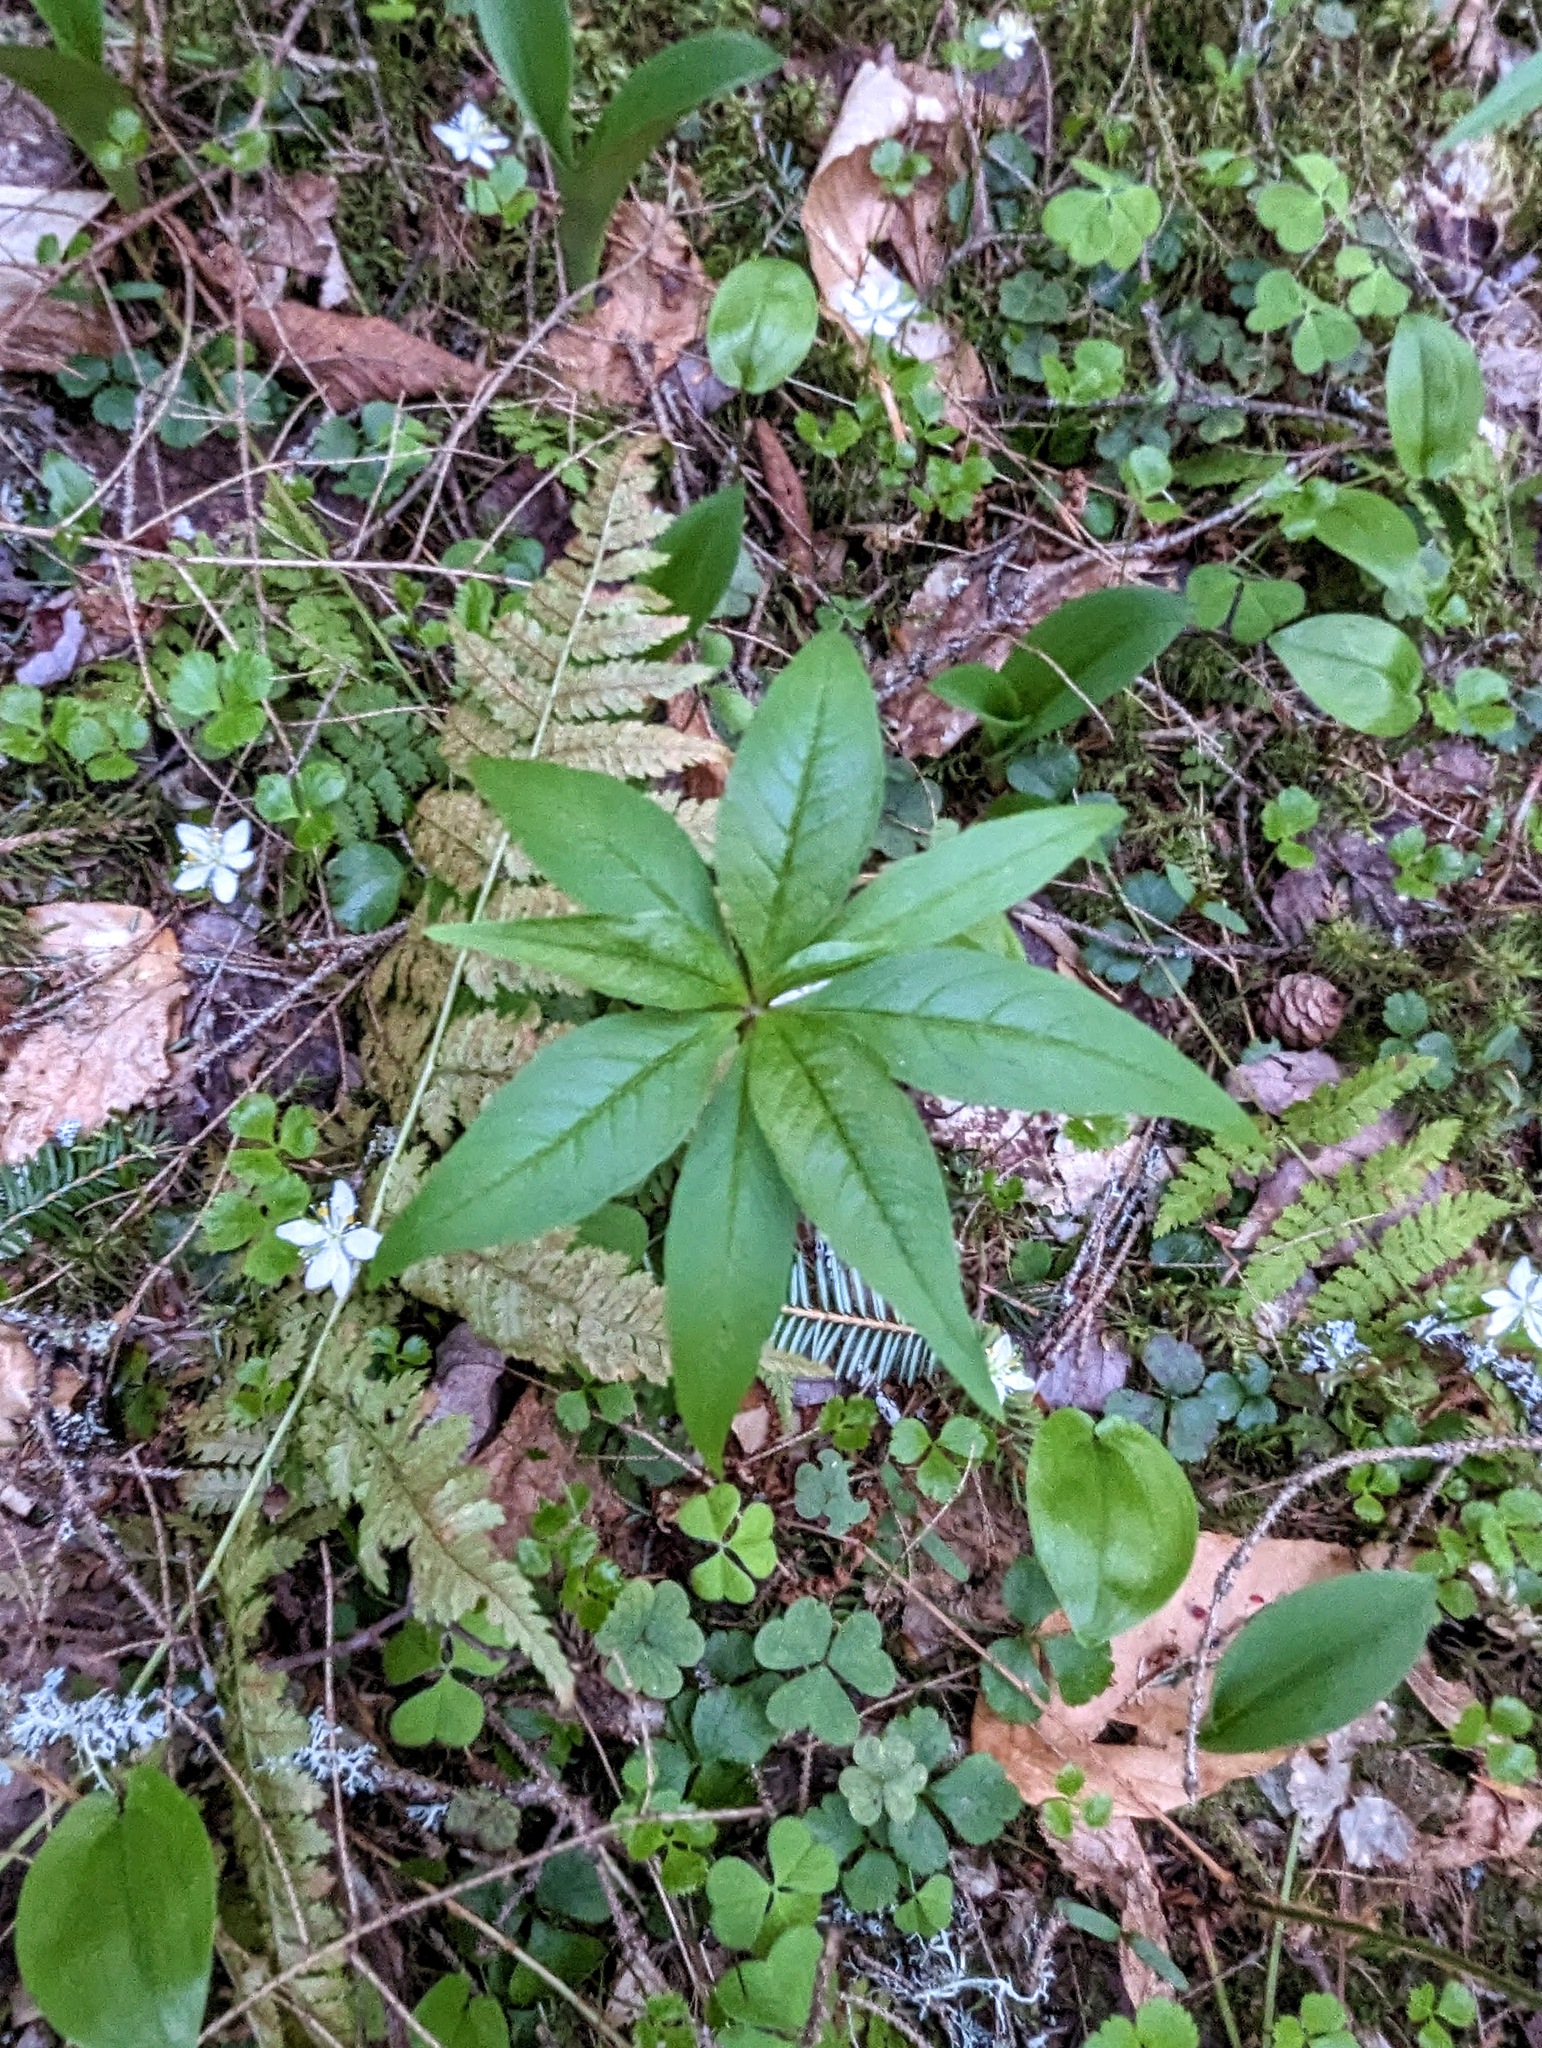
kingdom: Plantae
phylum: Tracheophyta
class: Magnoliopsida
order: Ericales
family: Primulaceae
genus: Lysimachia
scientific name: Lysimachia borealis
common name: American starflower
